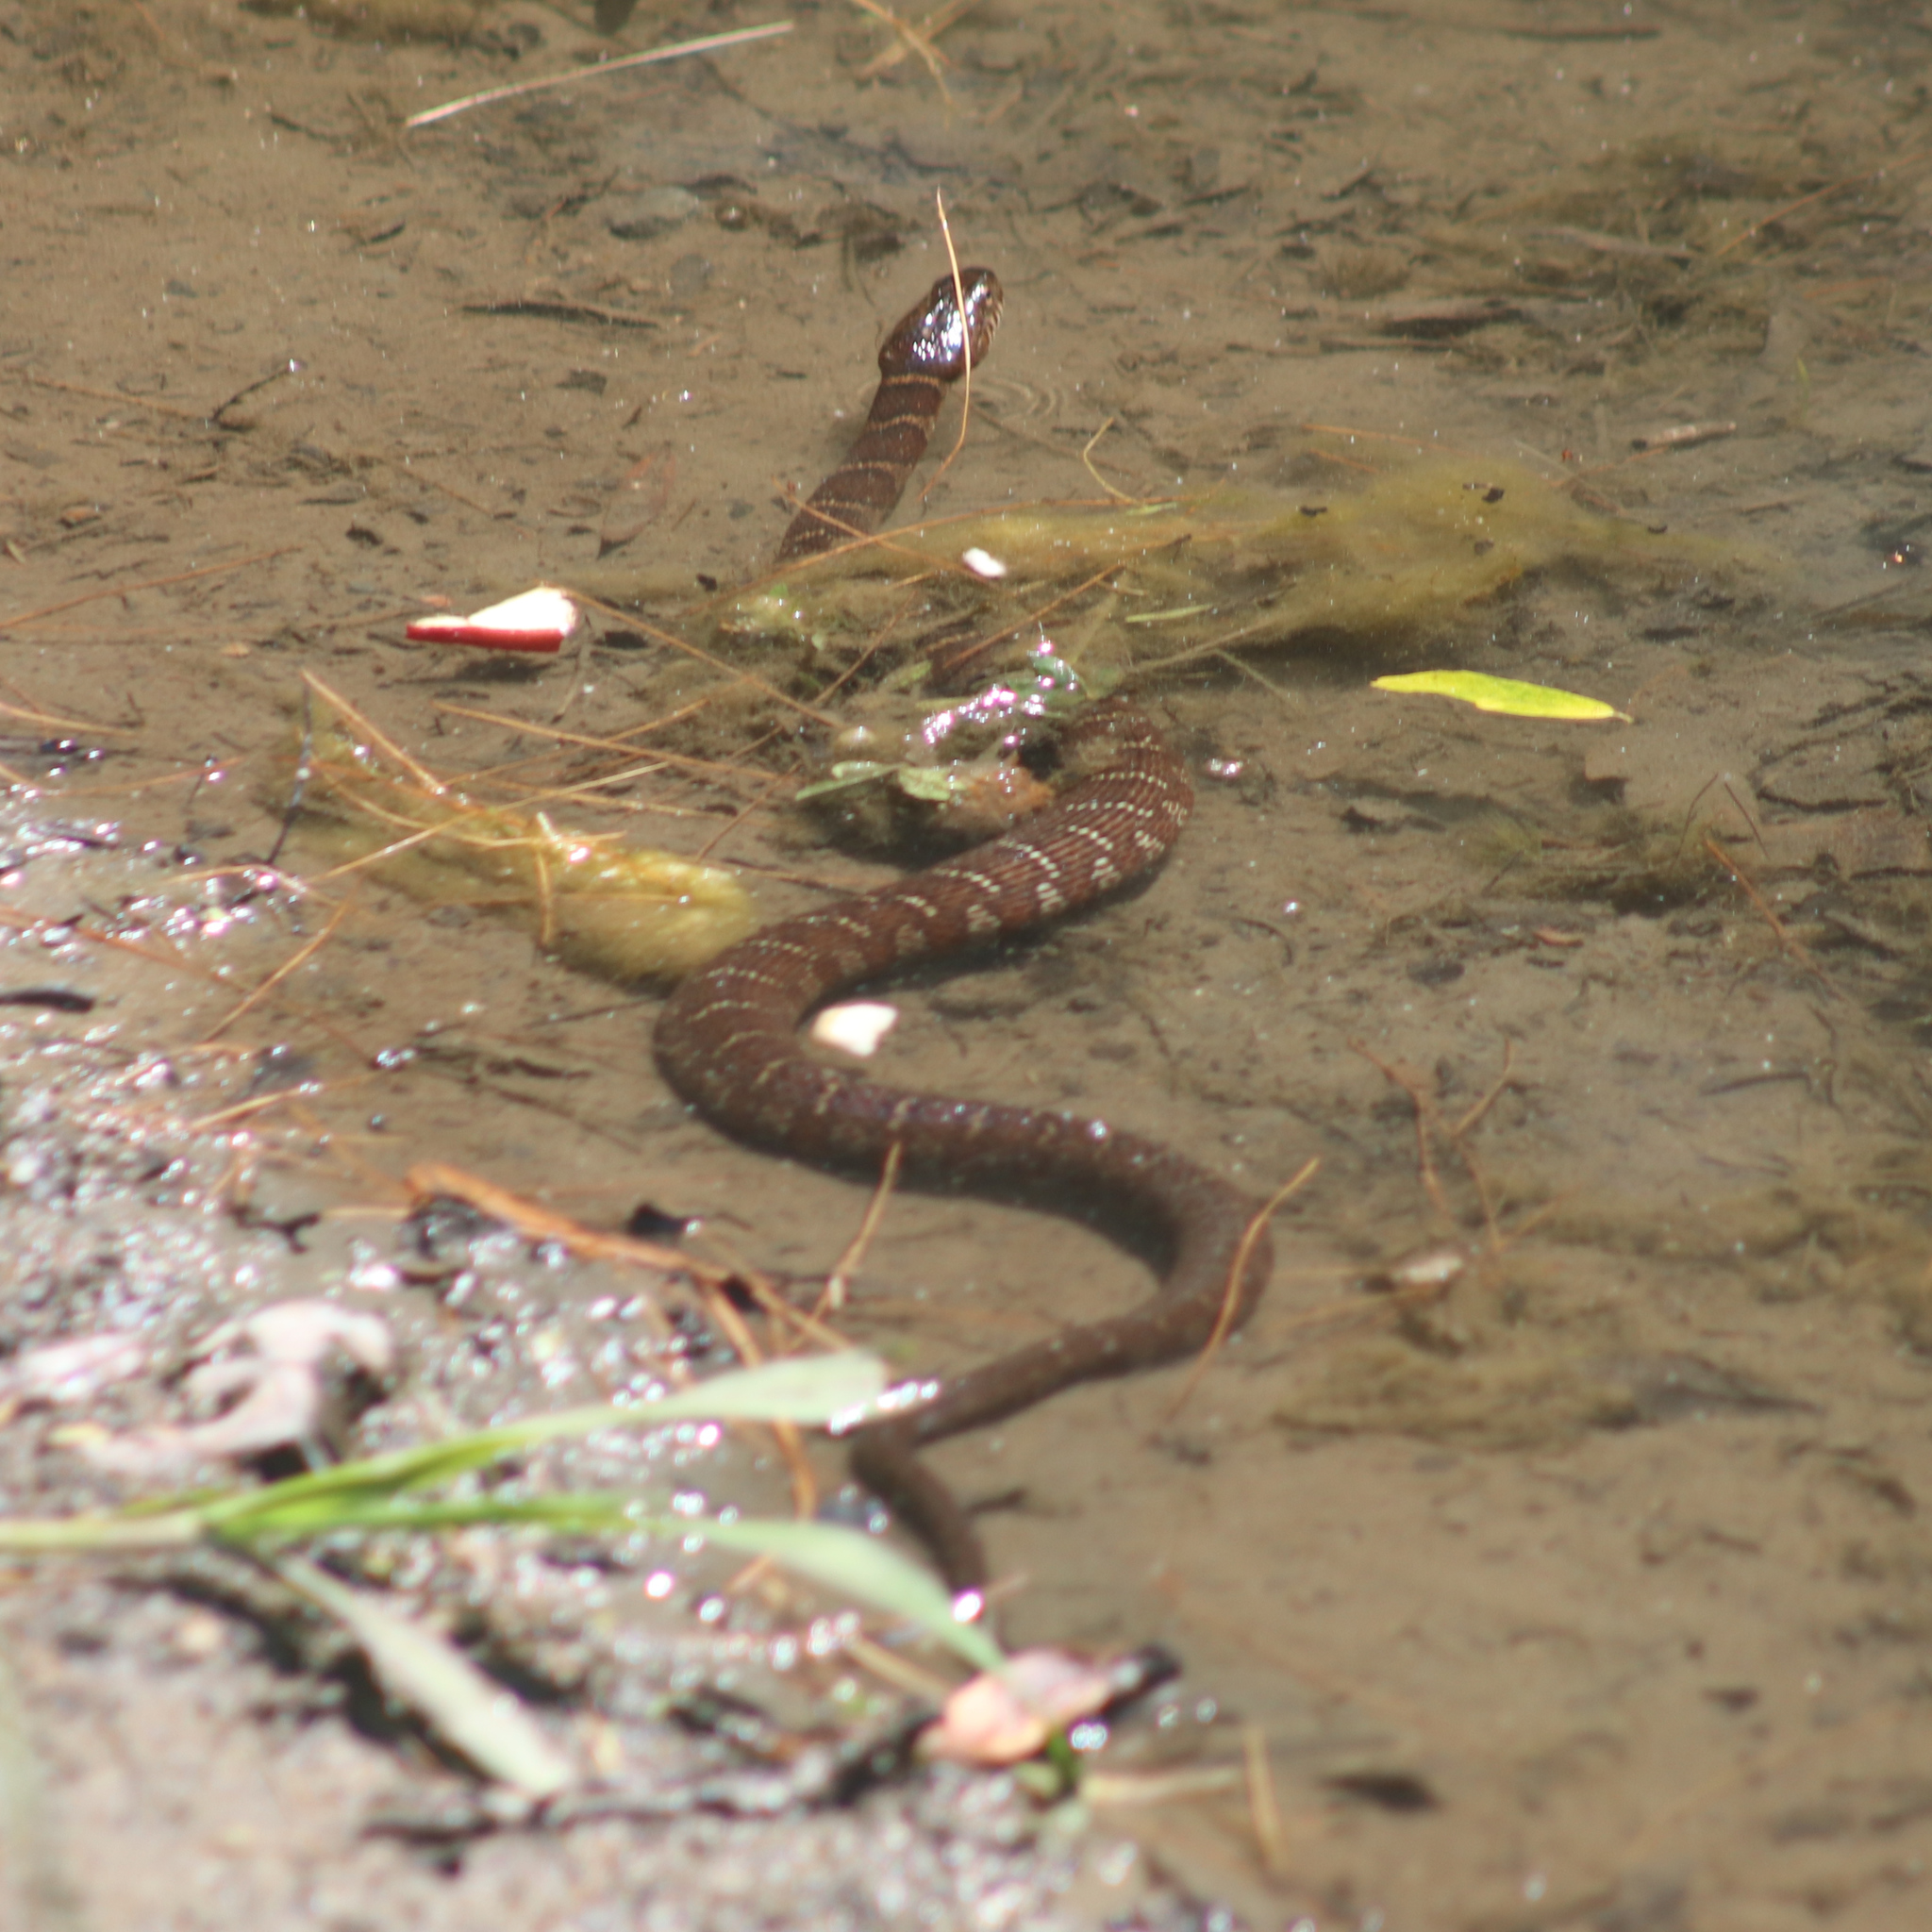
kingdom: Animalia
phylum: Chordata
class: Squamata
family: Colubridae
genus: Nerodia
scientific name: Nerodia sipedon
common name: Northern water snake
